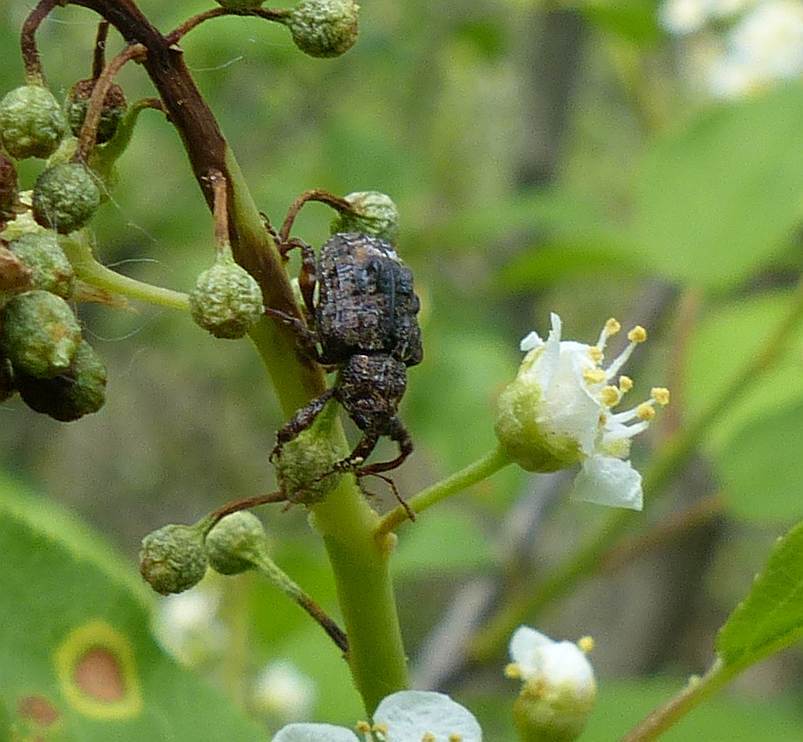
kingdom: Animalia
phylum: Arthropoda
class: Insecta
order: Coleoptera
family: Curculionidae
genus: Conotrachelus
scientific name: Conotrachelus nenuphar
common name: Plum curculio
